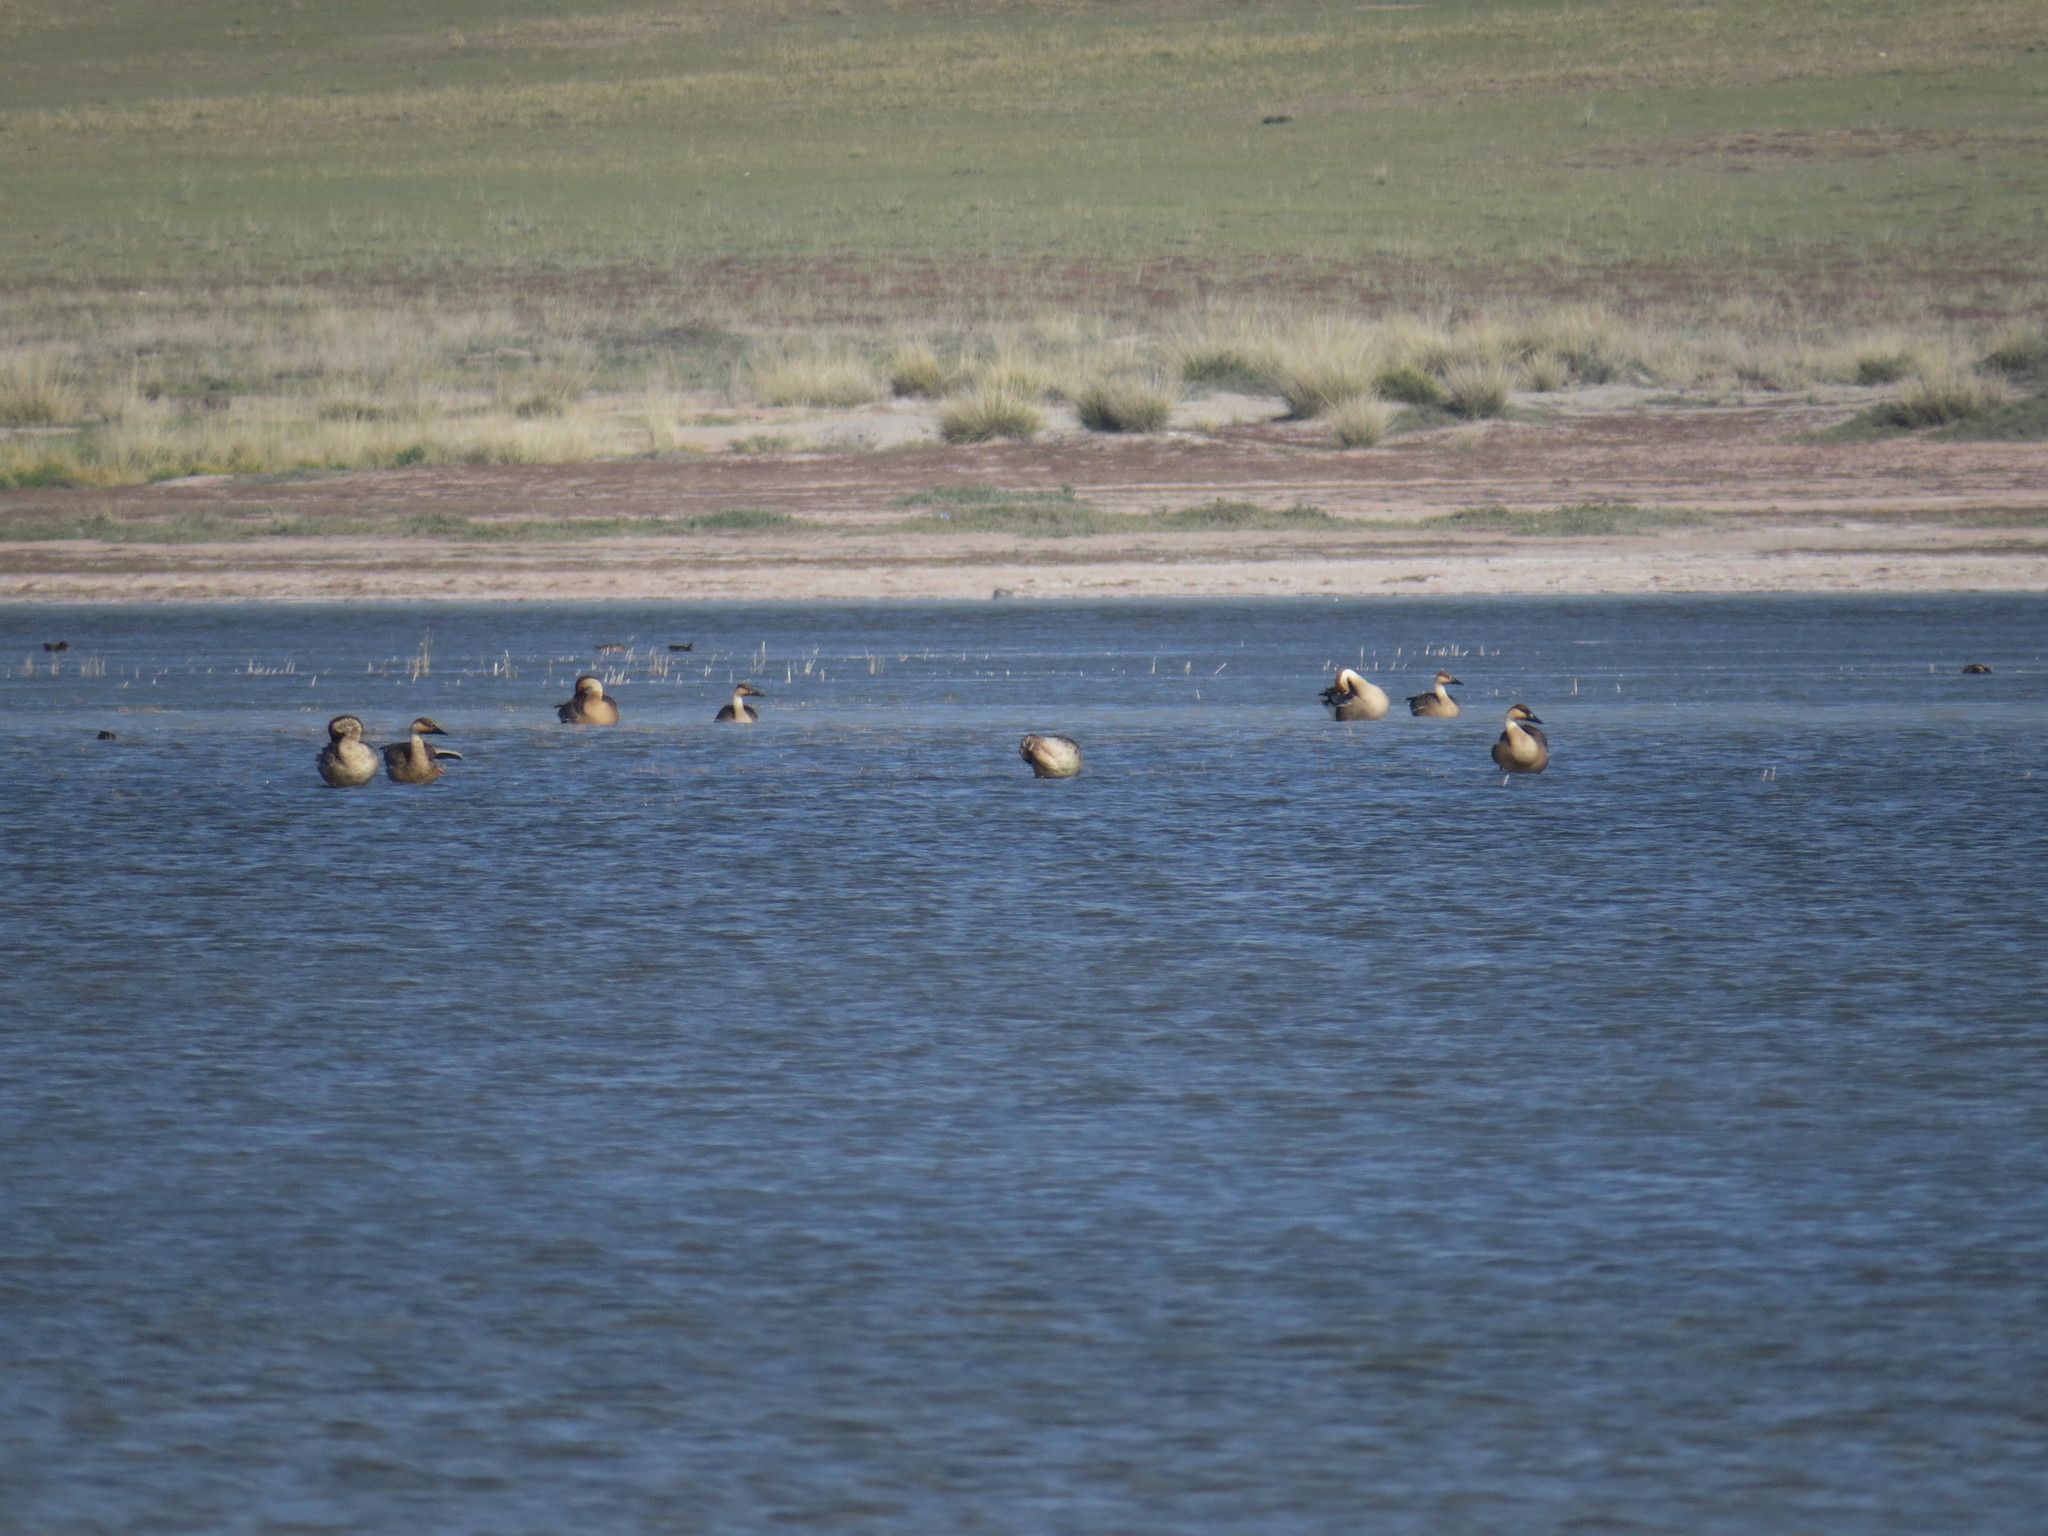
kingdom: Animalia
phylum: Chordata
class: Aves
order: Anseriformes
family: Anatidae
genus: Anser
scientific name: Anser cygnoides
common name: Swan goose
